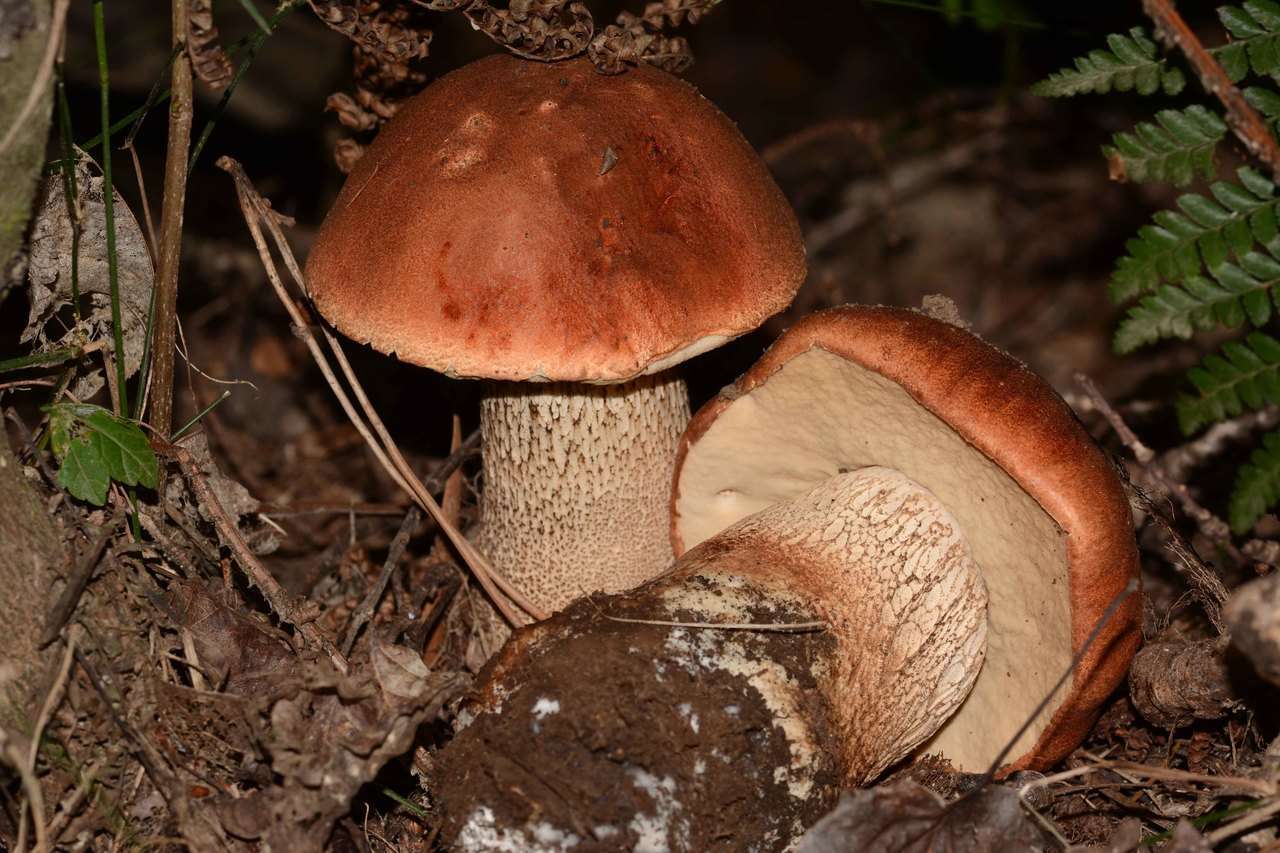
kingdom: Fungi
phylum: Basidiomycota
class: Agaricomycetes
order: Boletales
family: Boletaceae
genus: Leccinum
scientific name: Leccinum aurantiacum
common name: Orange bolete
